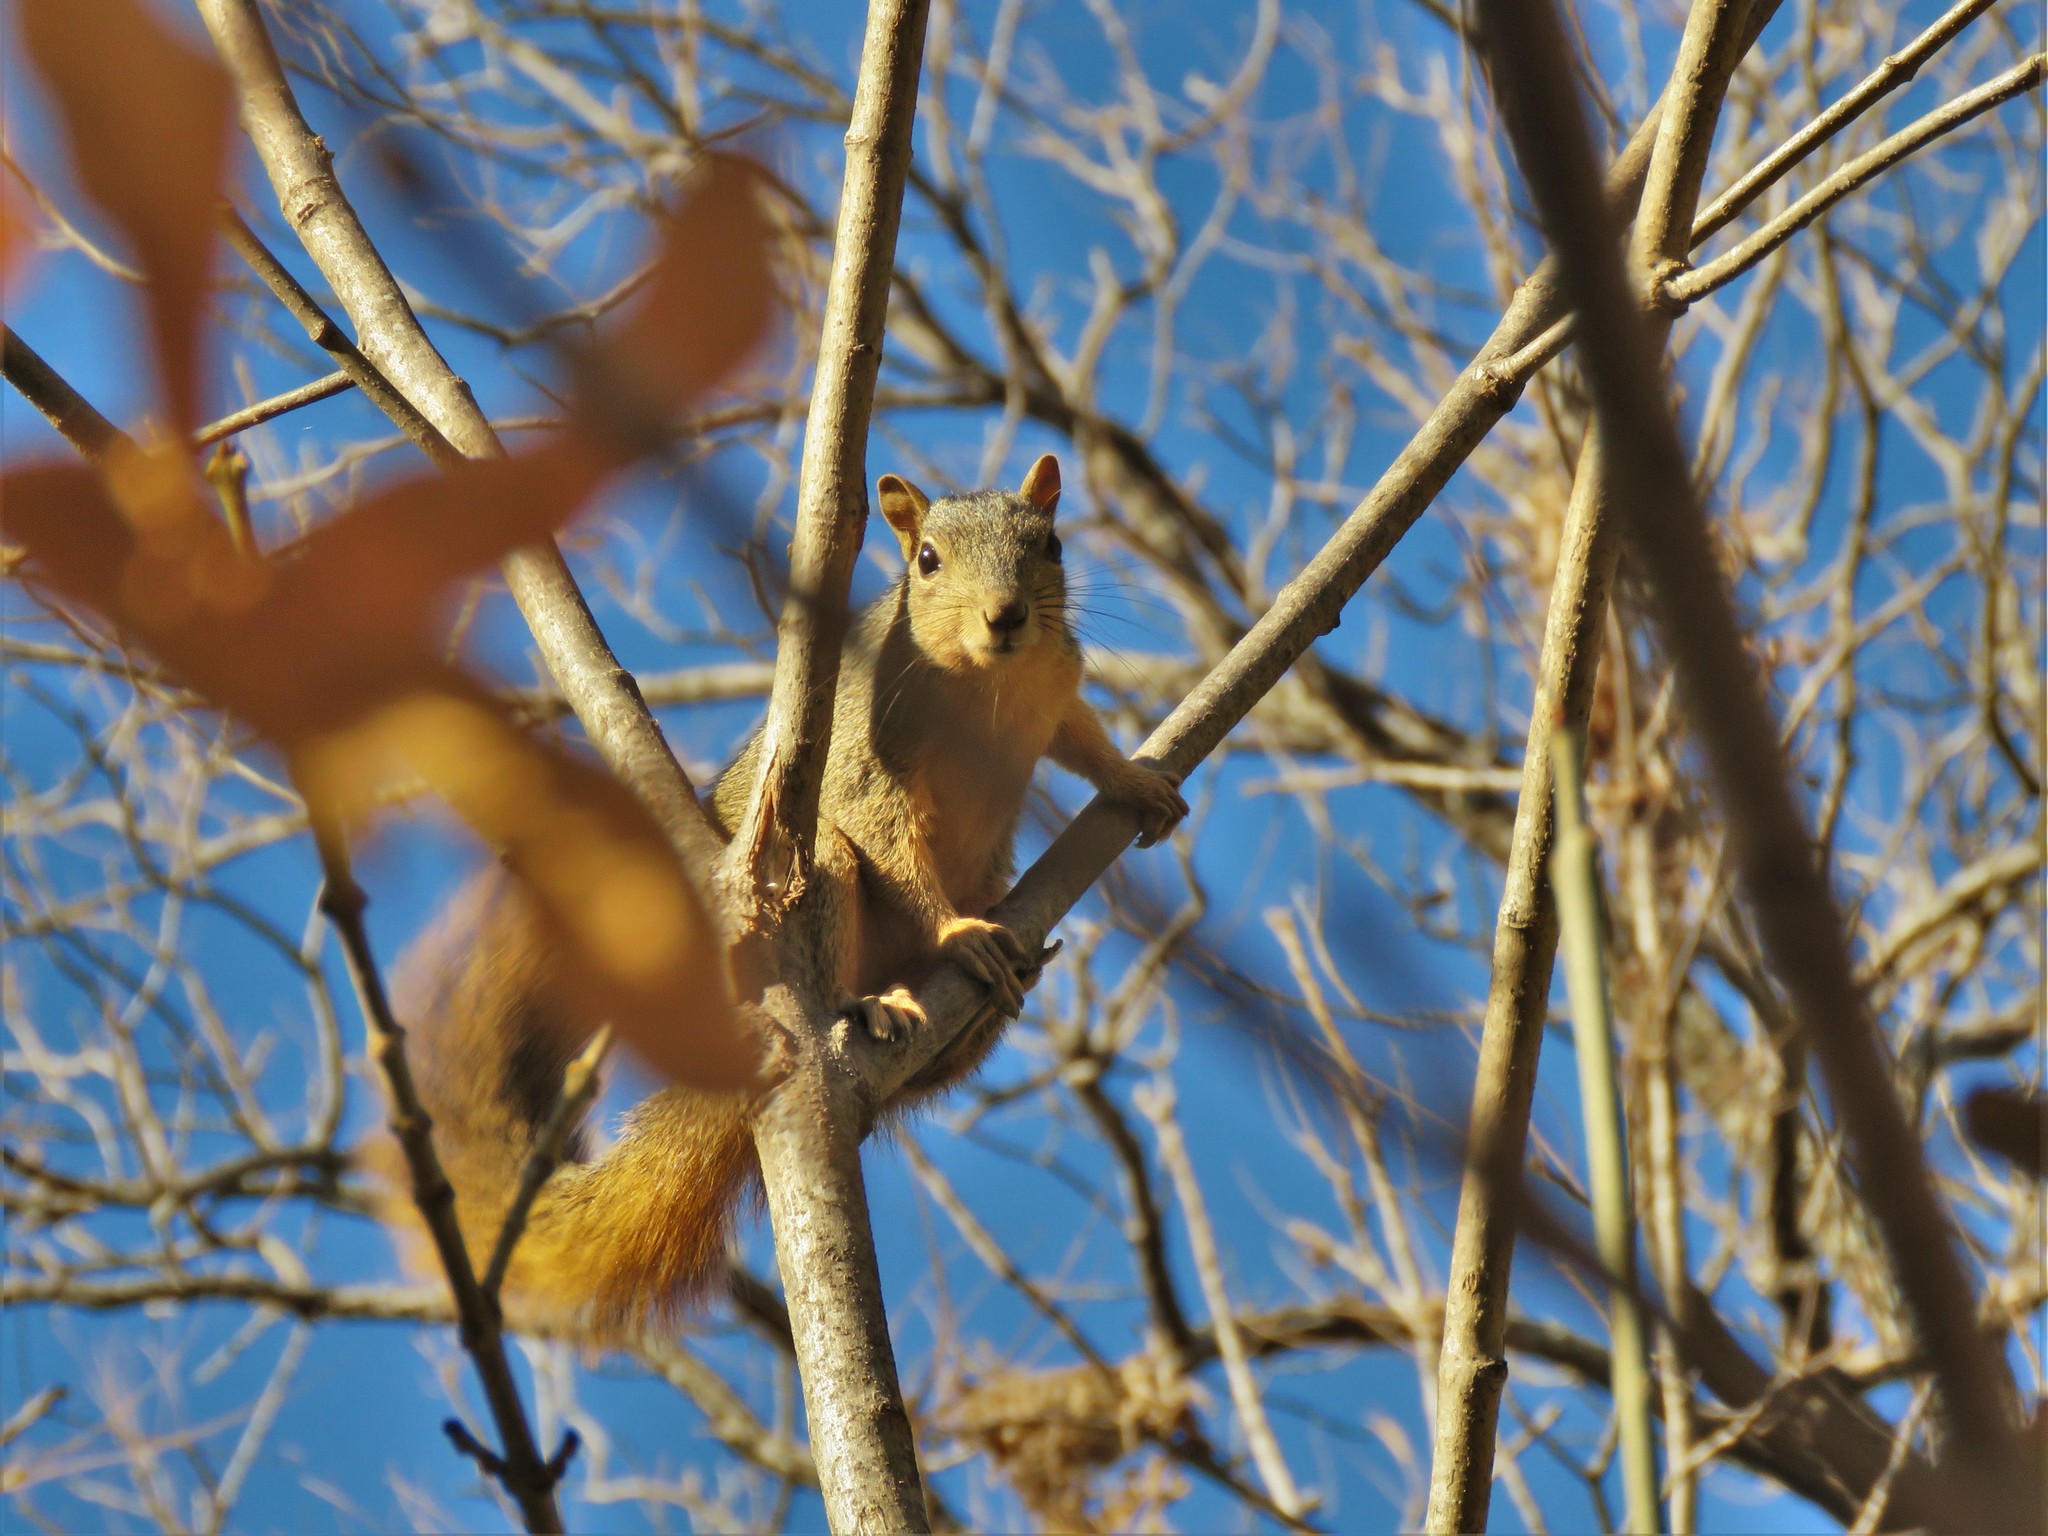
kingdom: Animalia
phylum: Chordata
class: Mammalia
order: Rodentia
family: Sciuridae
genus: Sciurus
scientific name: Sciurus niger
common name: Fox squirrel
